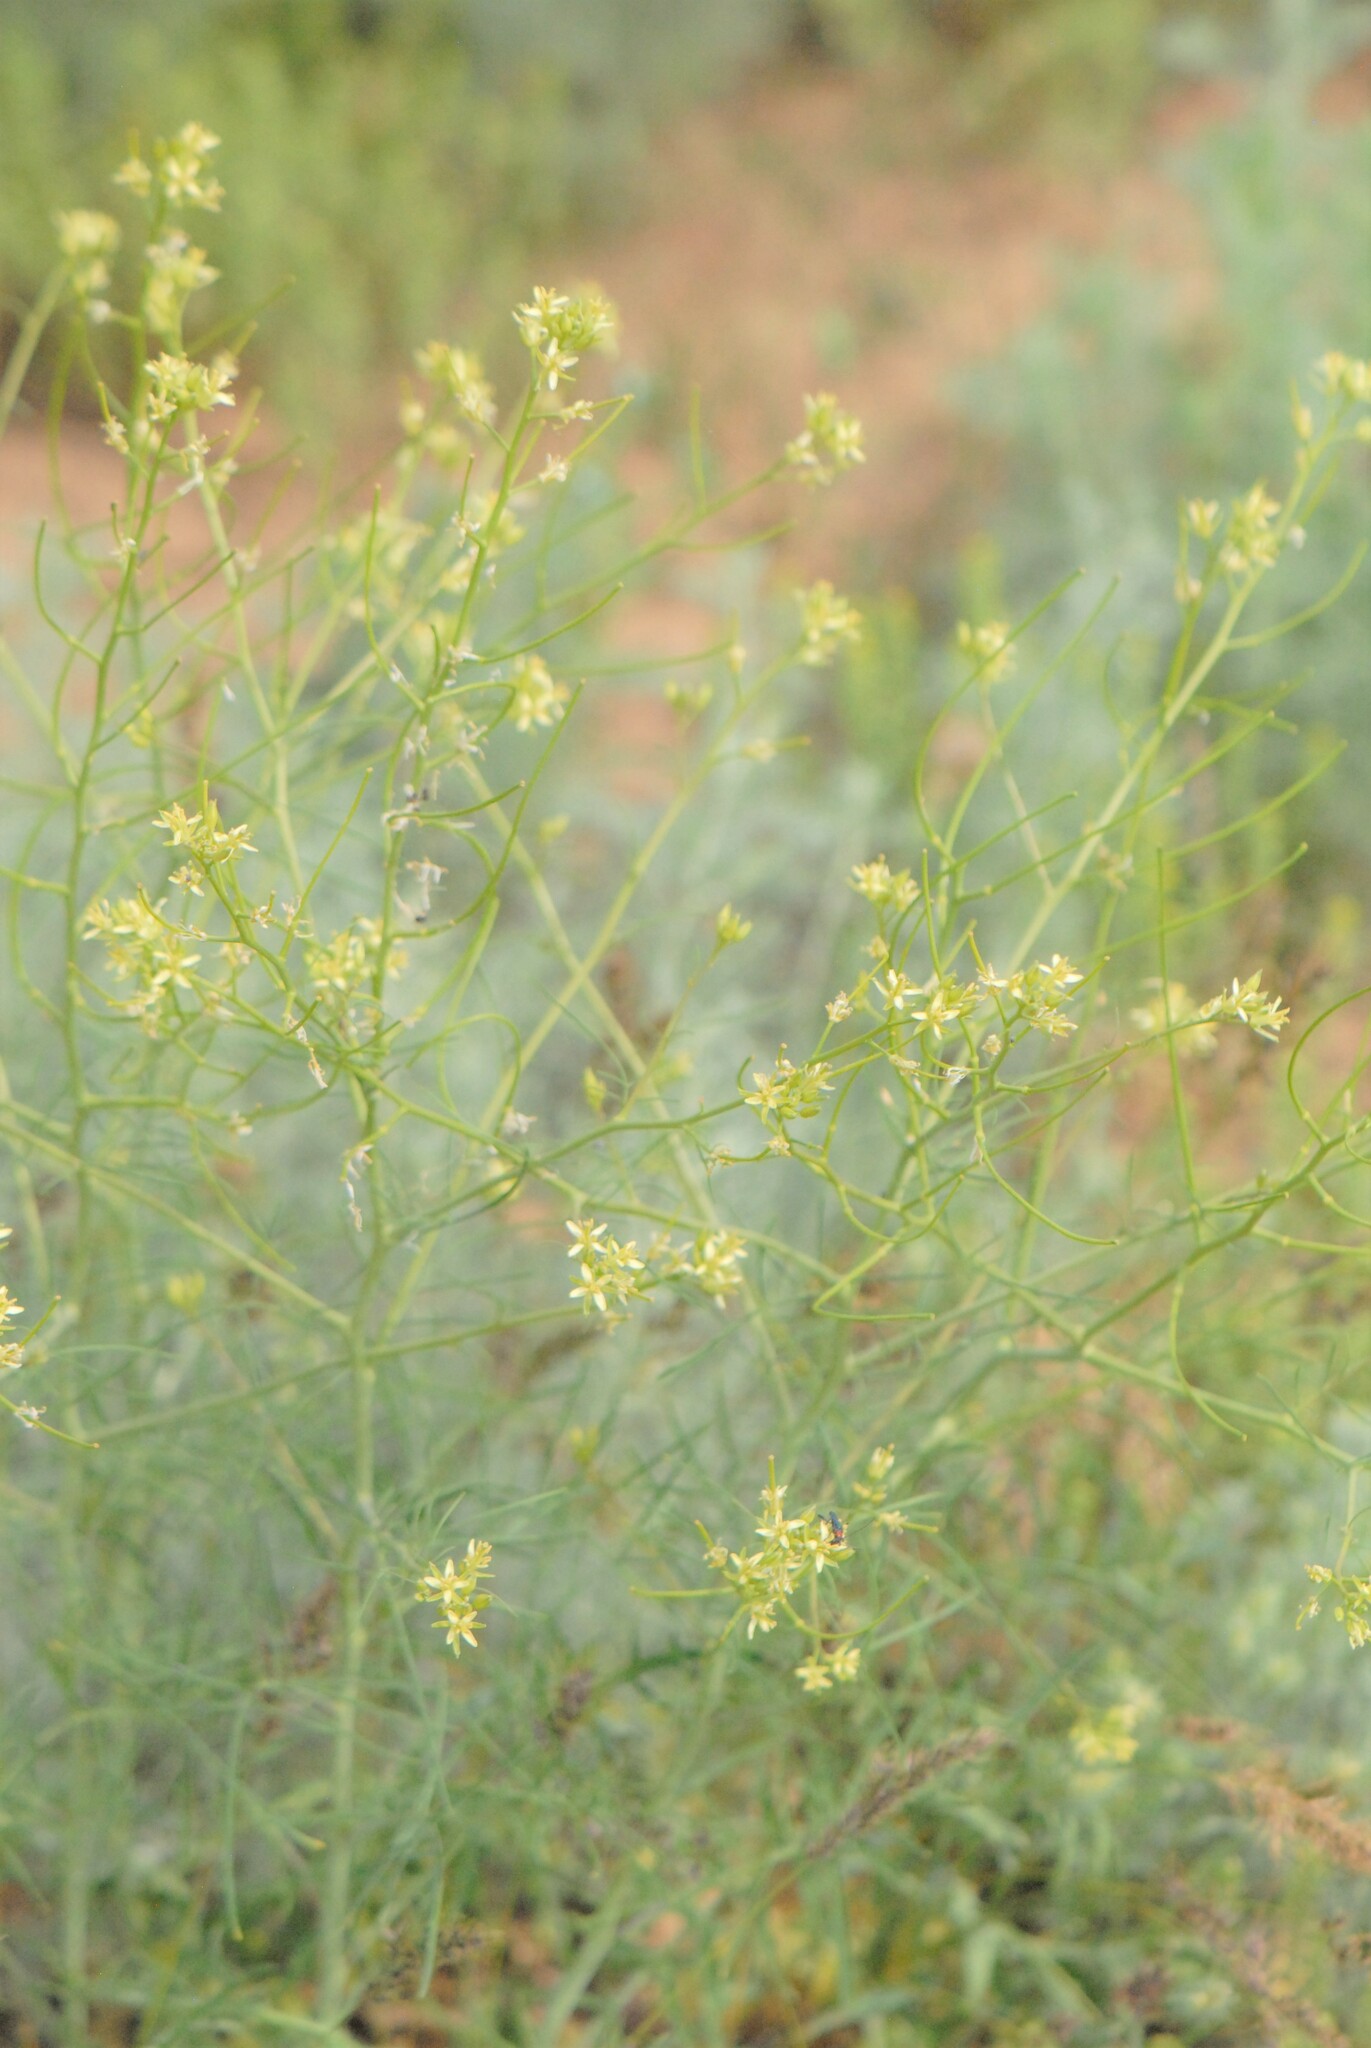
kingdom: Plantae
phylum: Tracheophyta
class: Magnoliopsida
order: Brassicales
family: Brassicaceae
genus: Sisymbrium
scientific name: Sisymbrium altissimum
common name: Tall rocket
